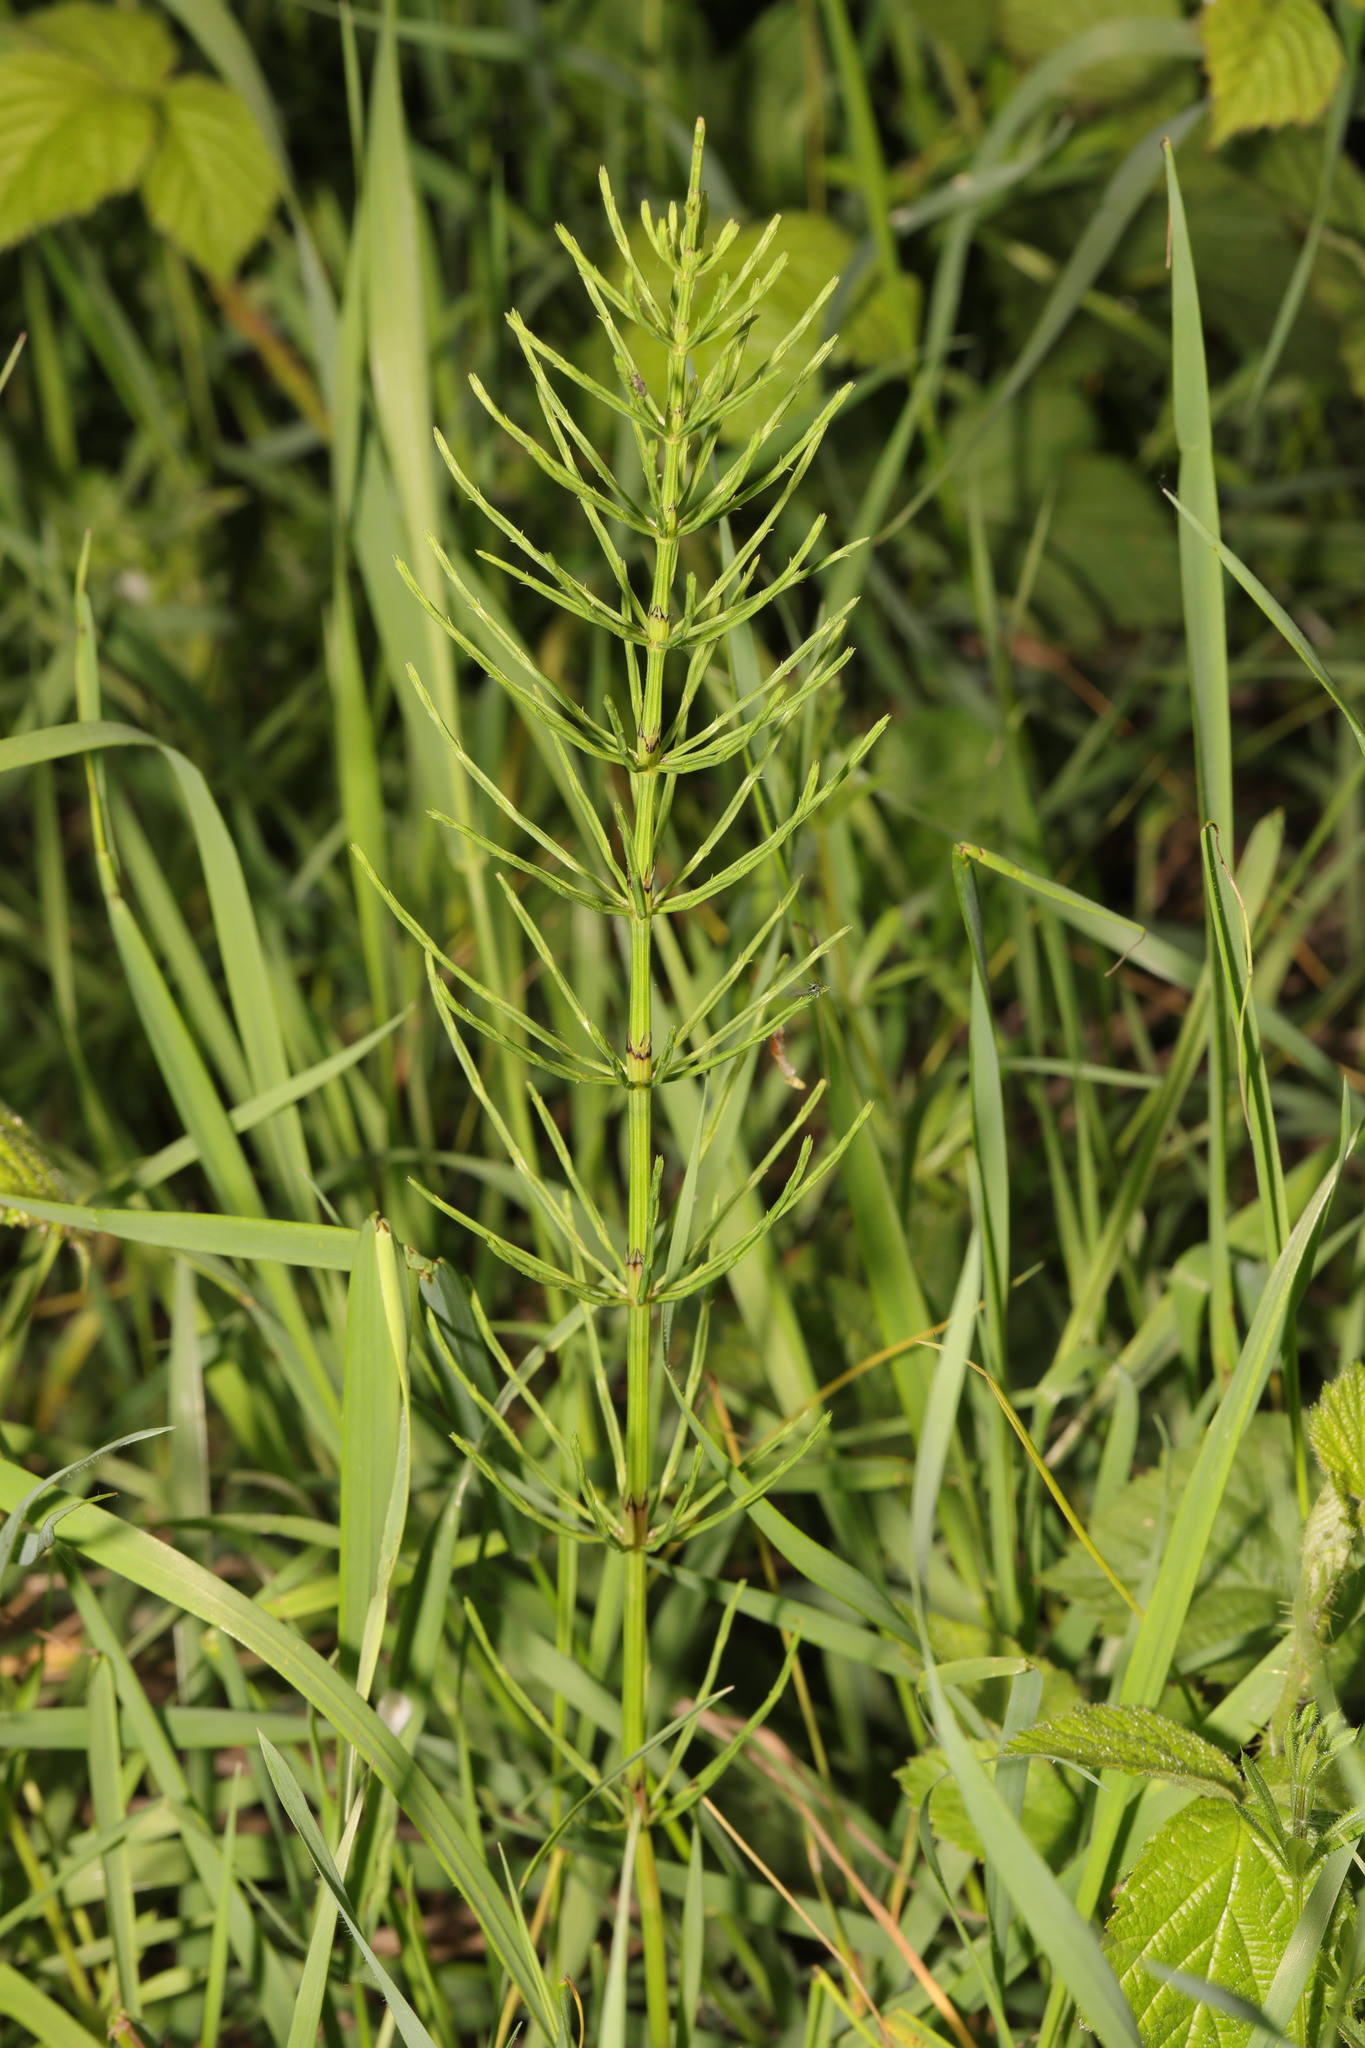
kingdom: Plantae
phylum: Tracheophyta
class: Polypodiopsida
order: Equisetales
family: Equisetaceae
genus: Equisetum
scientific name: Equisetum arvense
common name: Field horsetail
